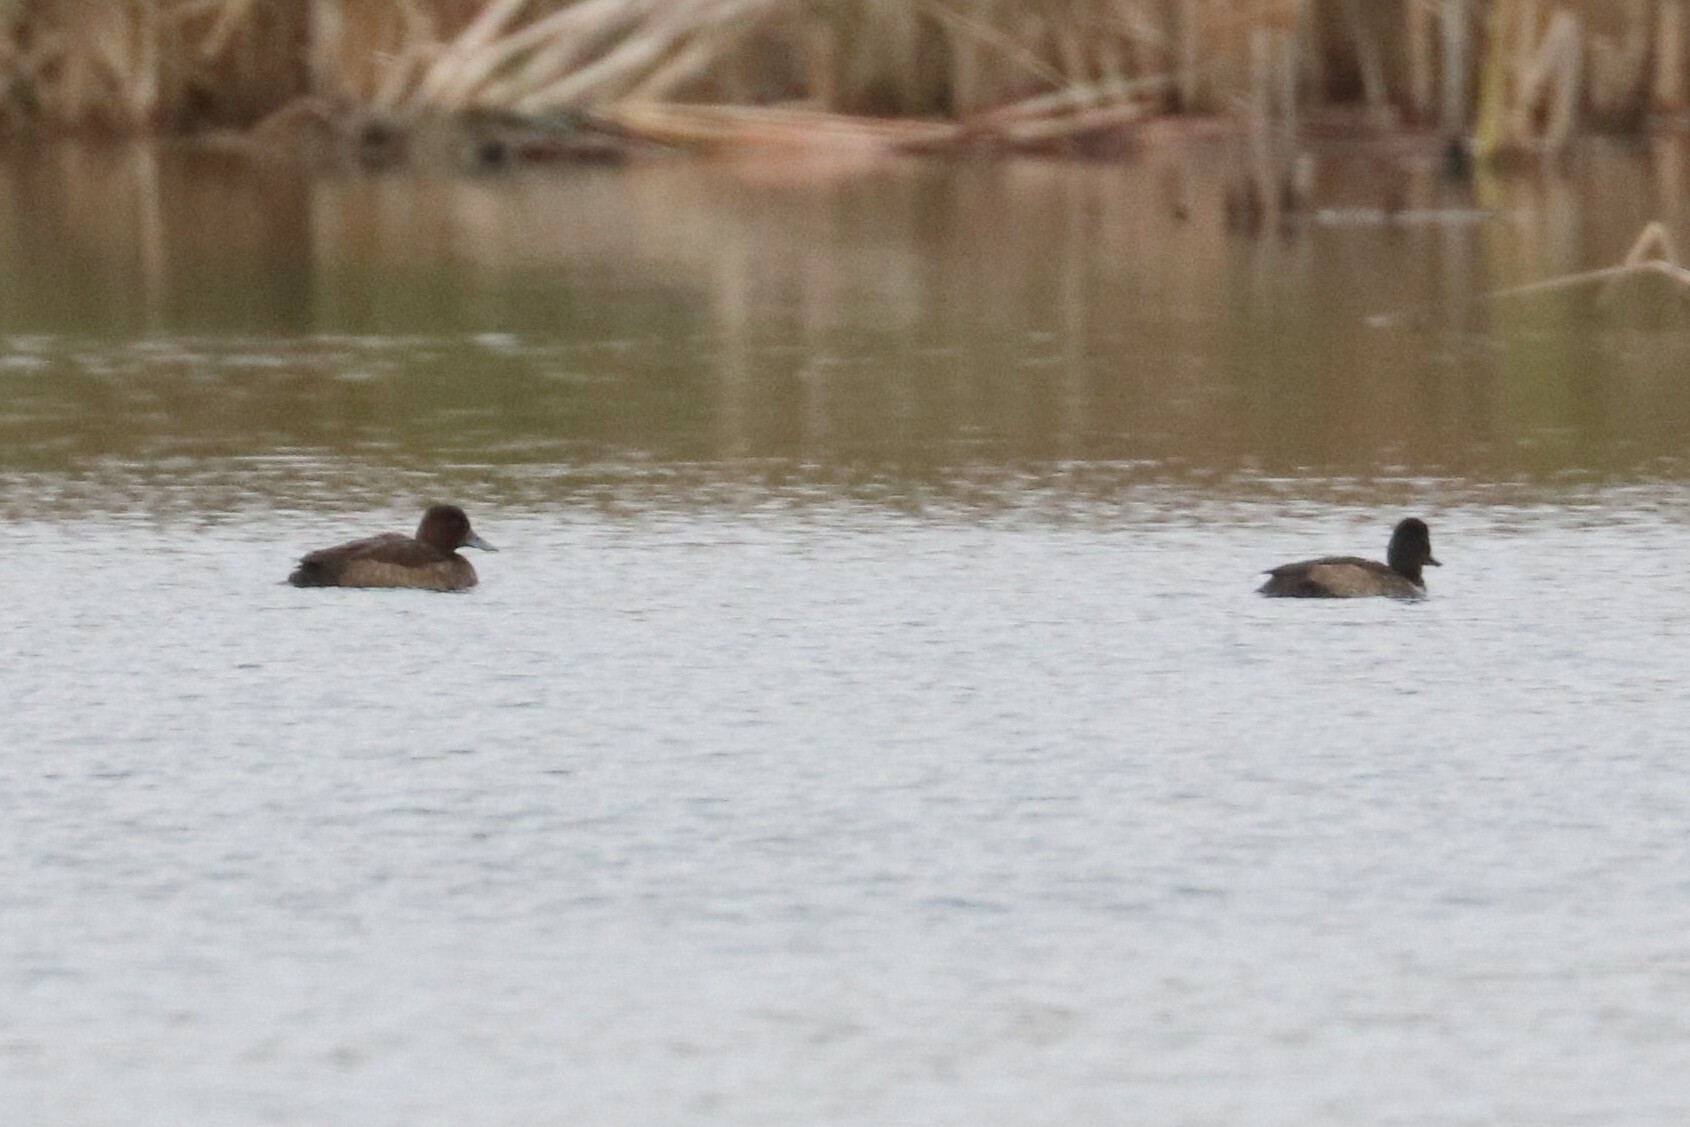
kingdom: Animalia
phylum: Chordata
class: Aves
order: Anseriformes
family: Anatidae
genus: Aythya
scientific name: Aythya fuligula
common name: Tufted duck
